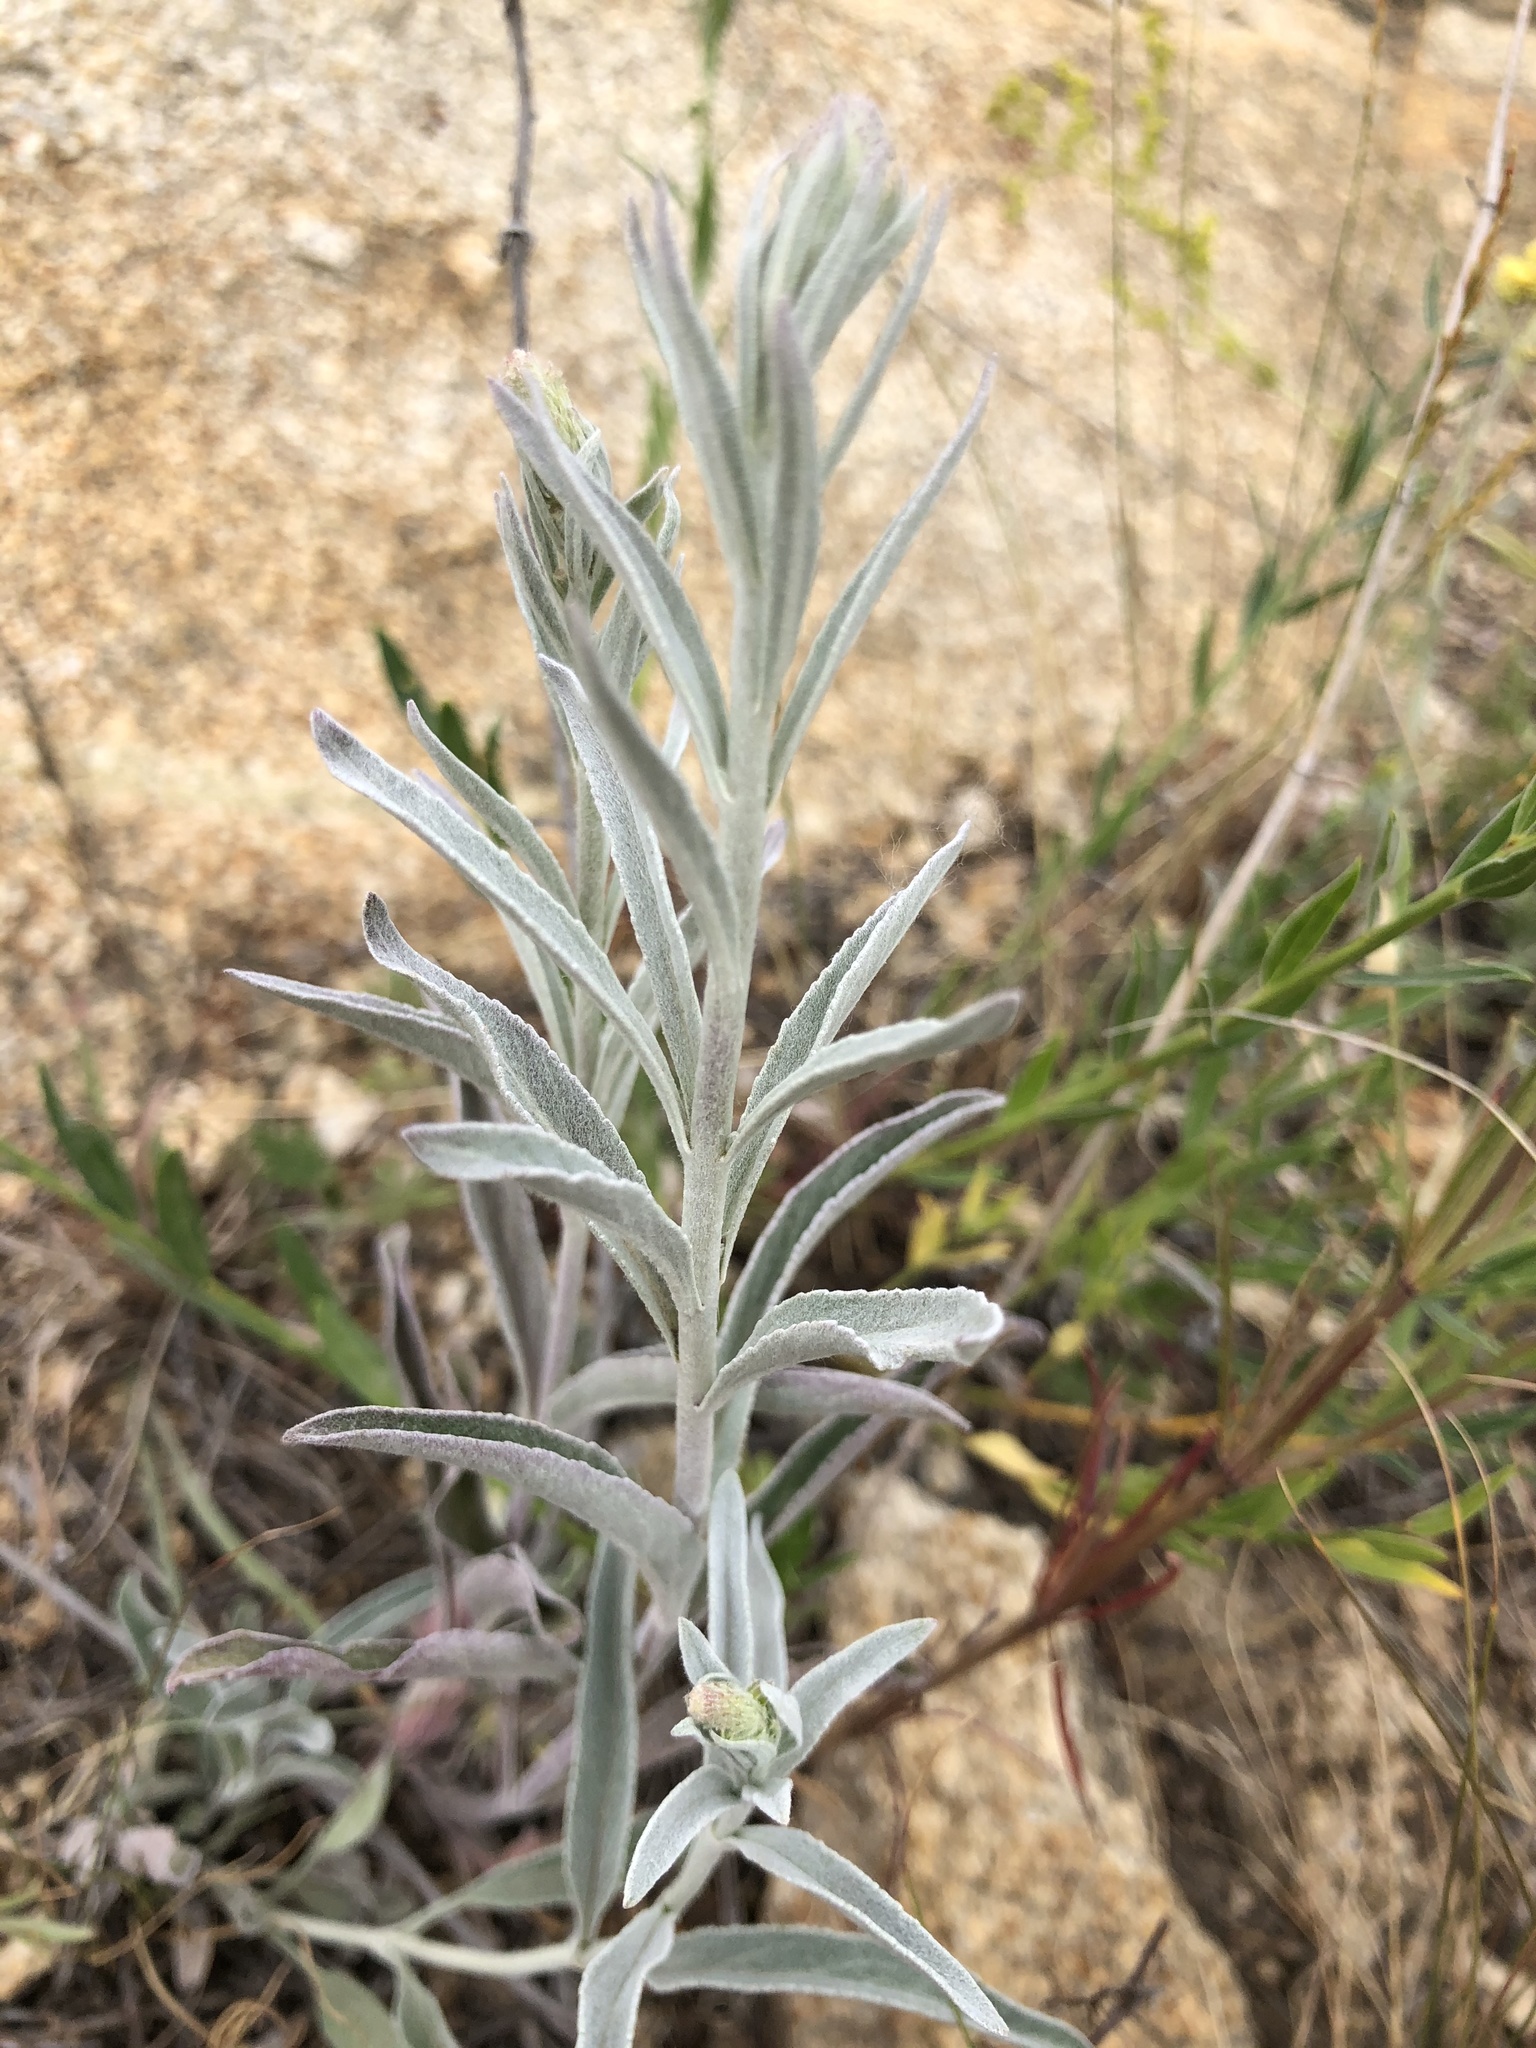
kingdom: Plantae
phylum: Tracheophyta
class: Magnoliopsida
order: Lamiales
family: Plantaginaceae
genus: Veronica
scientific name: Veronica incana
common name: Silver speedwell
